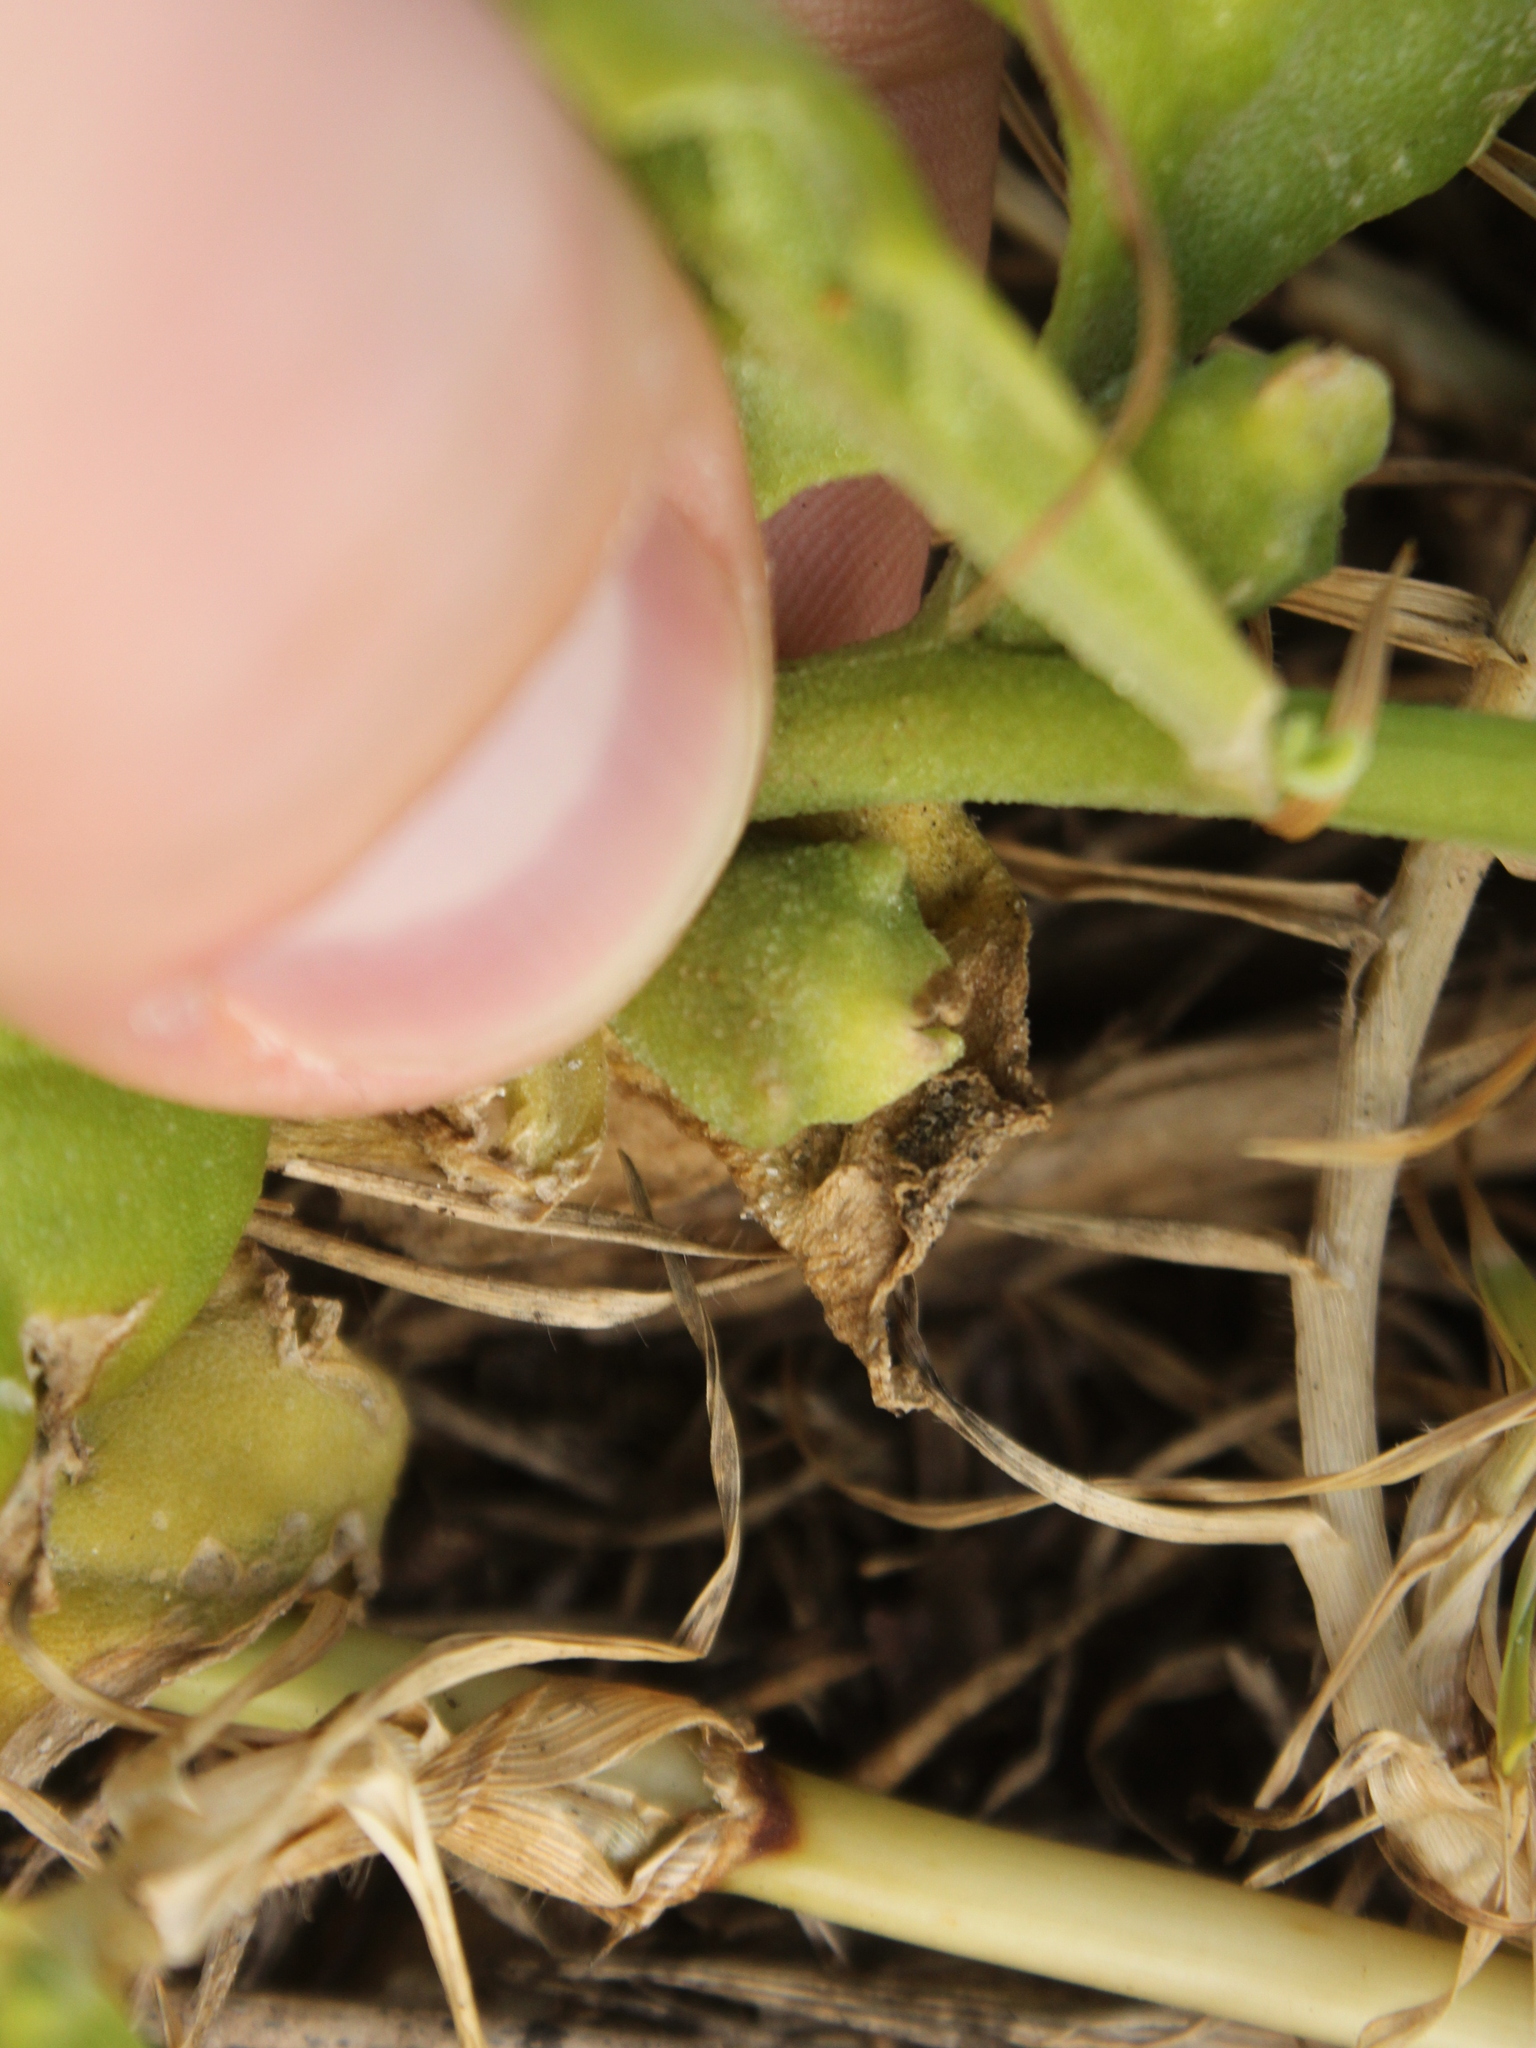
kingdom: Plantae
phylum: Tracheophyta
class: Magnoliopsida
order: Caryophyllales
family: Aizoaceae
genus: Tetragonia
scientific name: Tetragonia tetragonoides
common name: New zealand-spinach
